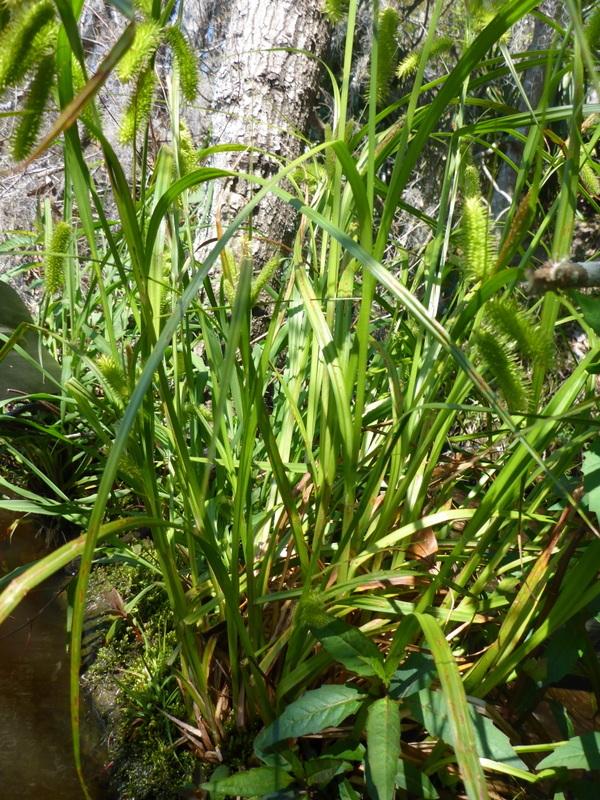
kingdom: Plantae
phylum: Tracheophyta
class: Liliopsida
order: Poales
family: Cyperaceae
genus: Carex
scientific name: Carex comosa
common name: Bristly sedge
